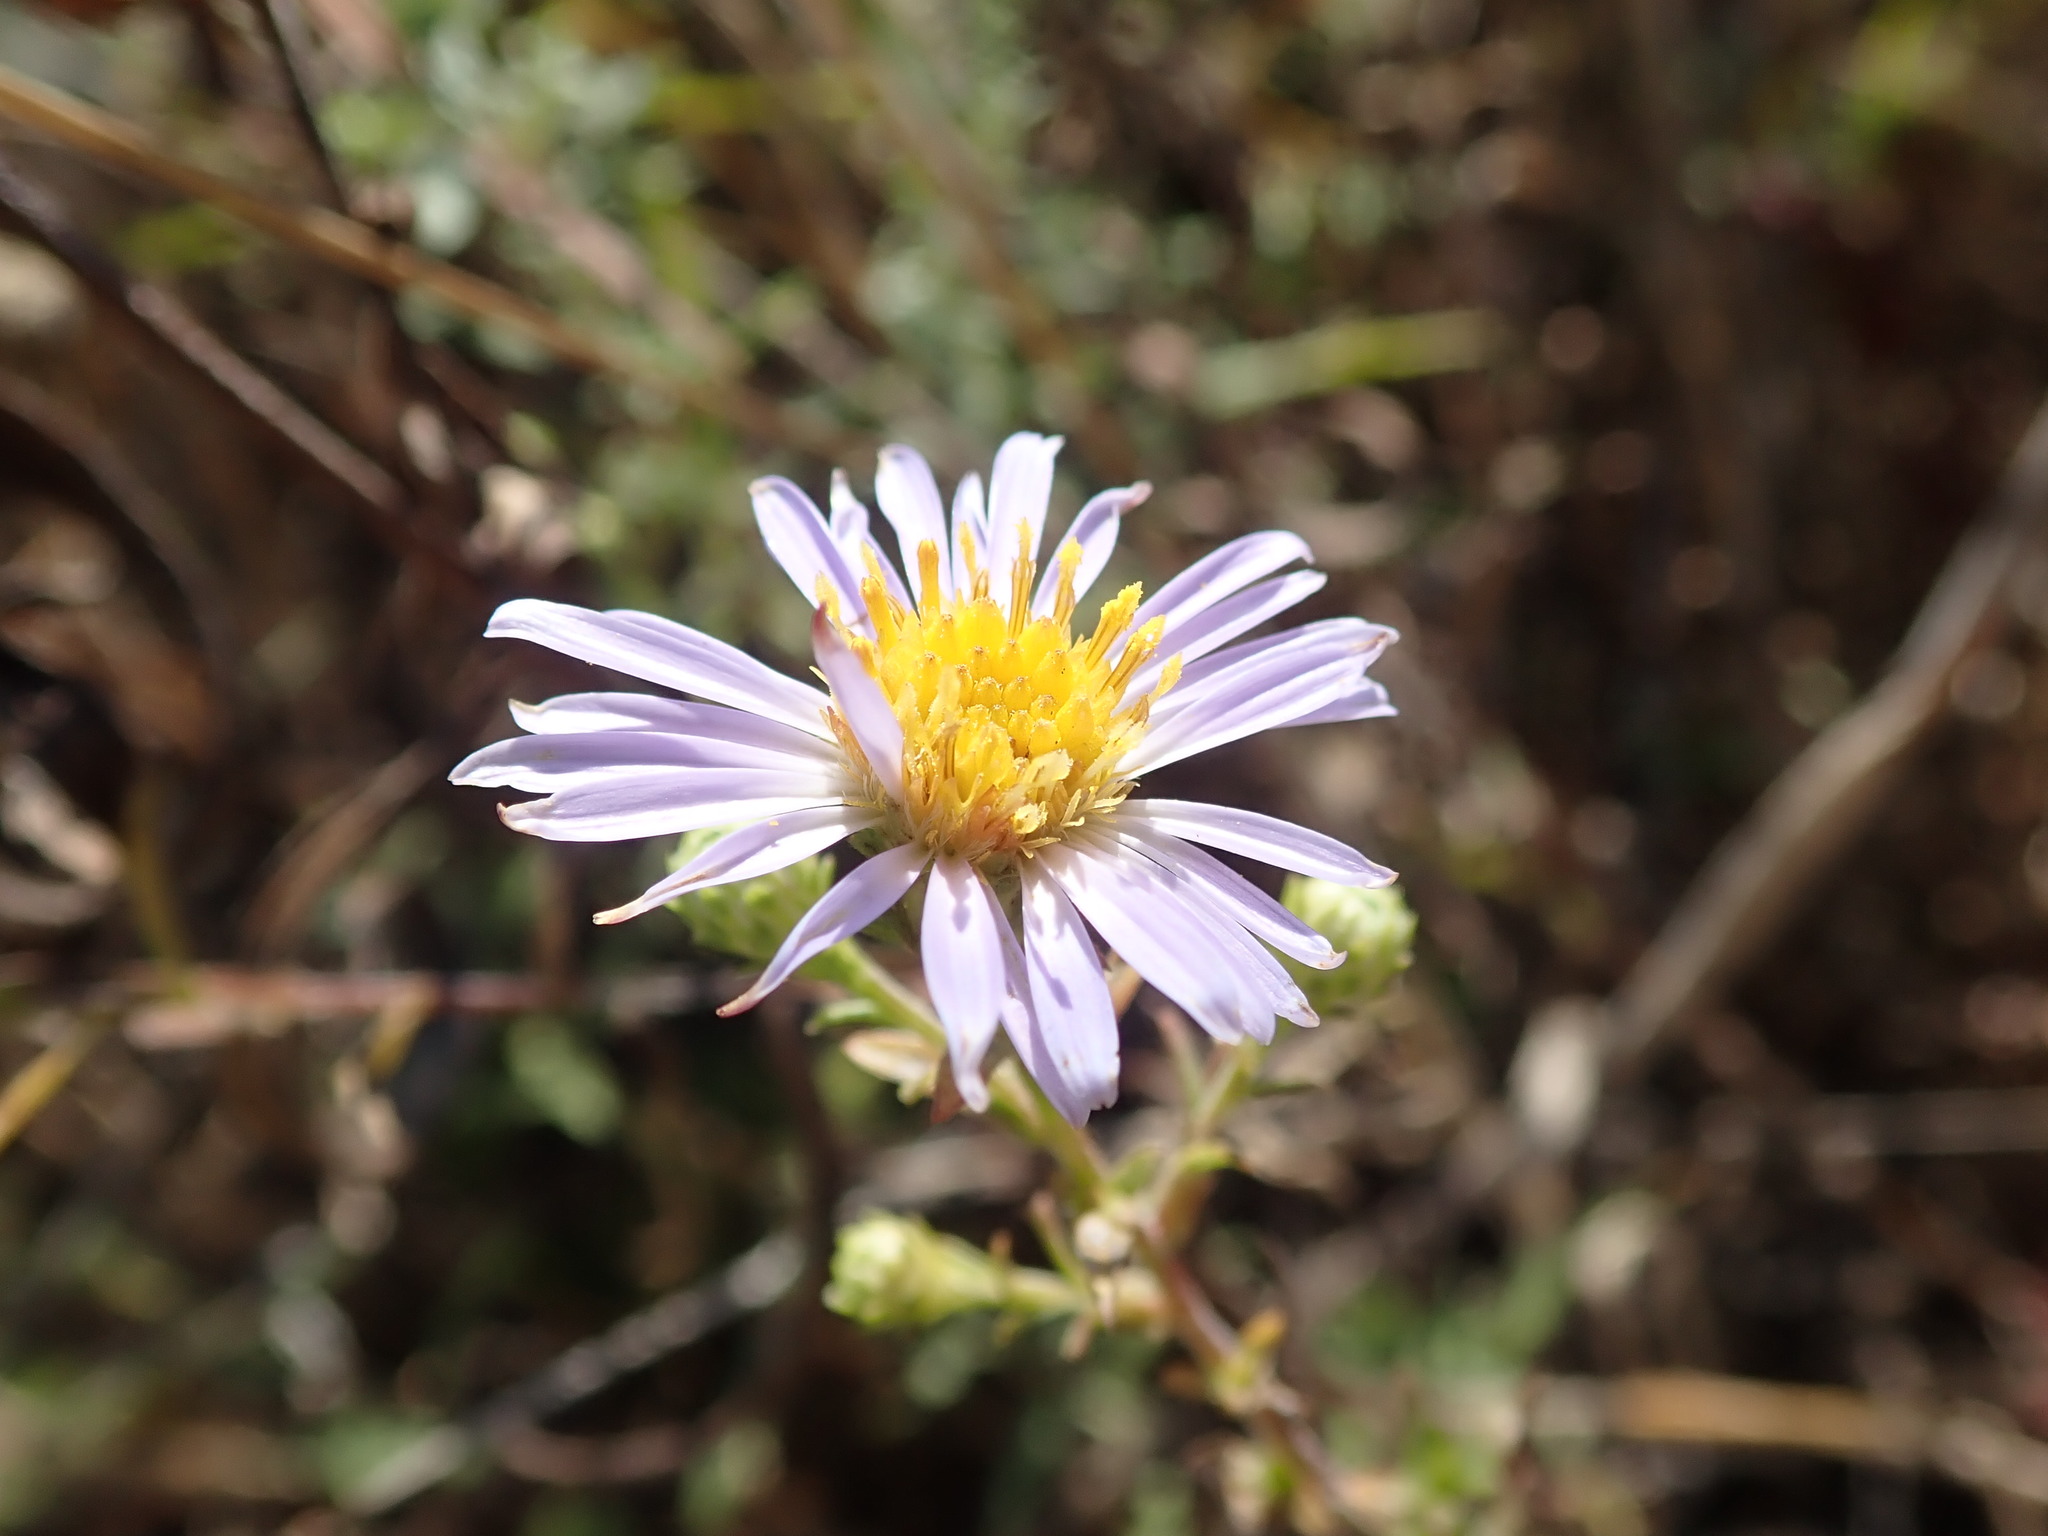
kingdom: Plantae
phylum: Tracheophyta
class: Magnoliopsida
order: Asterales
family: Asteraceae
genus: Symphyotrichum
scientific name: Symphyotrichum chilense
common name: Pacific aster
